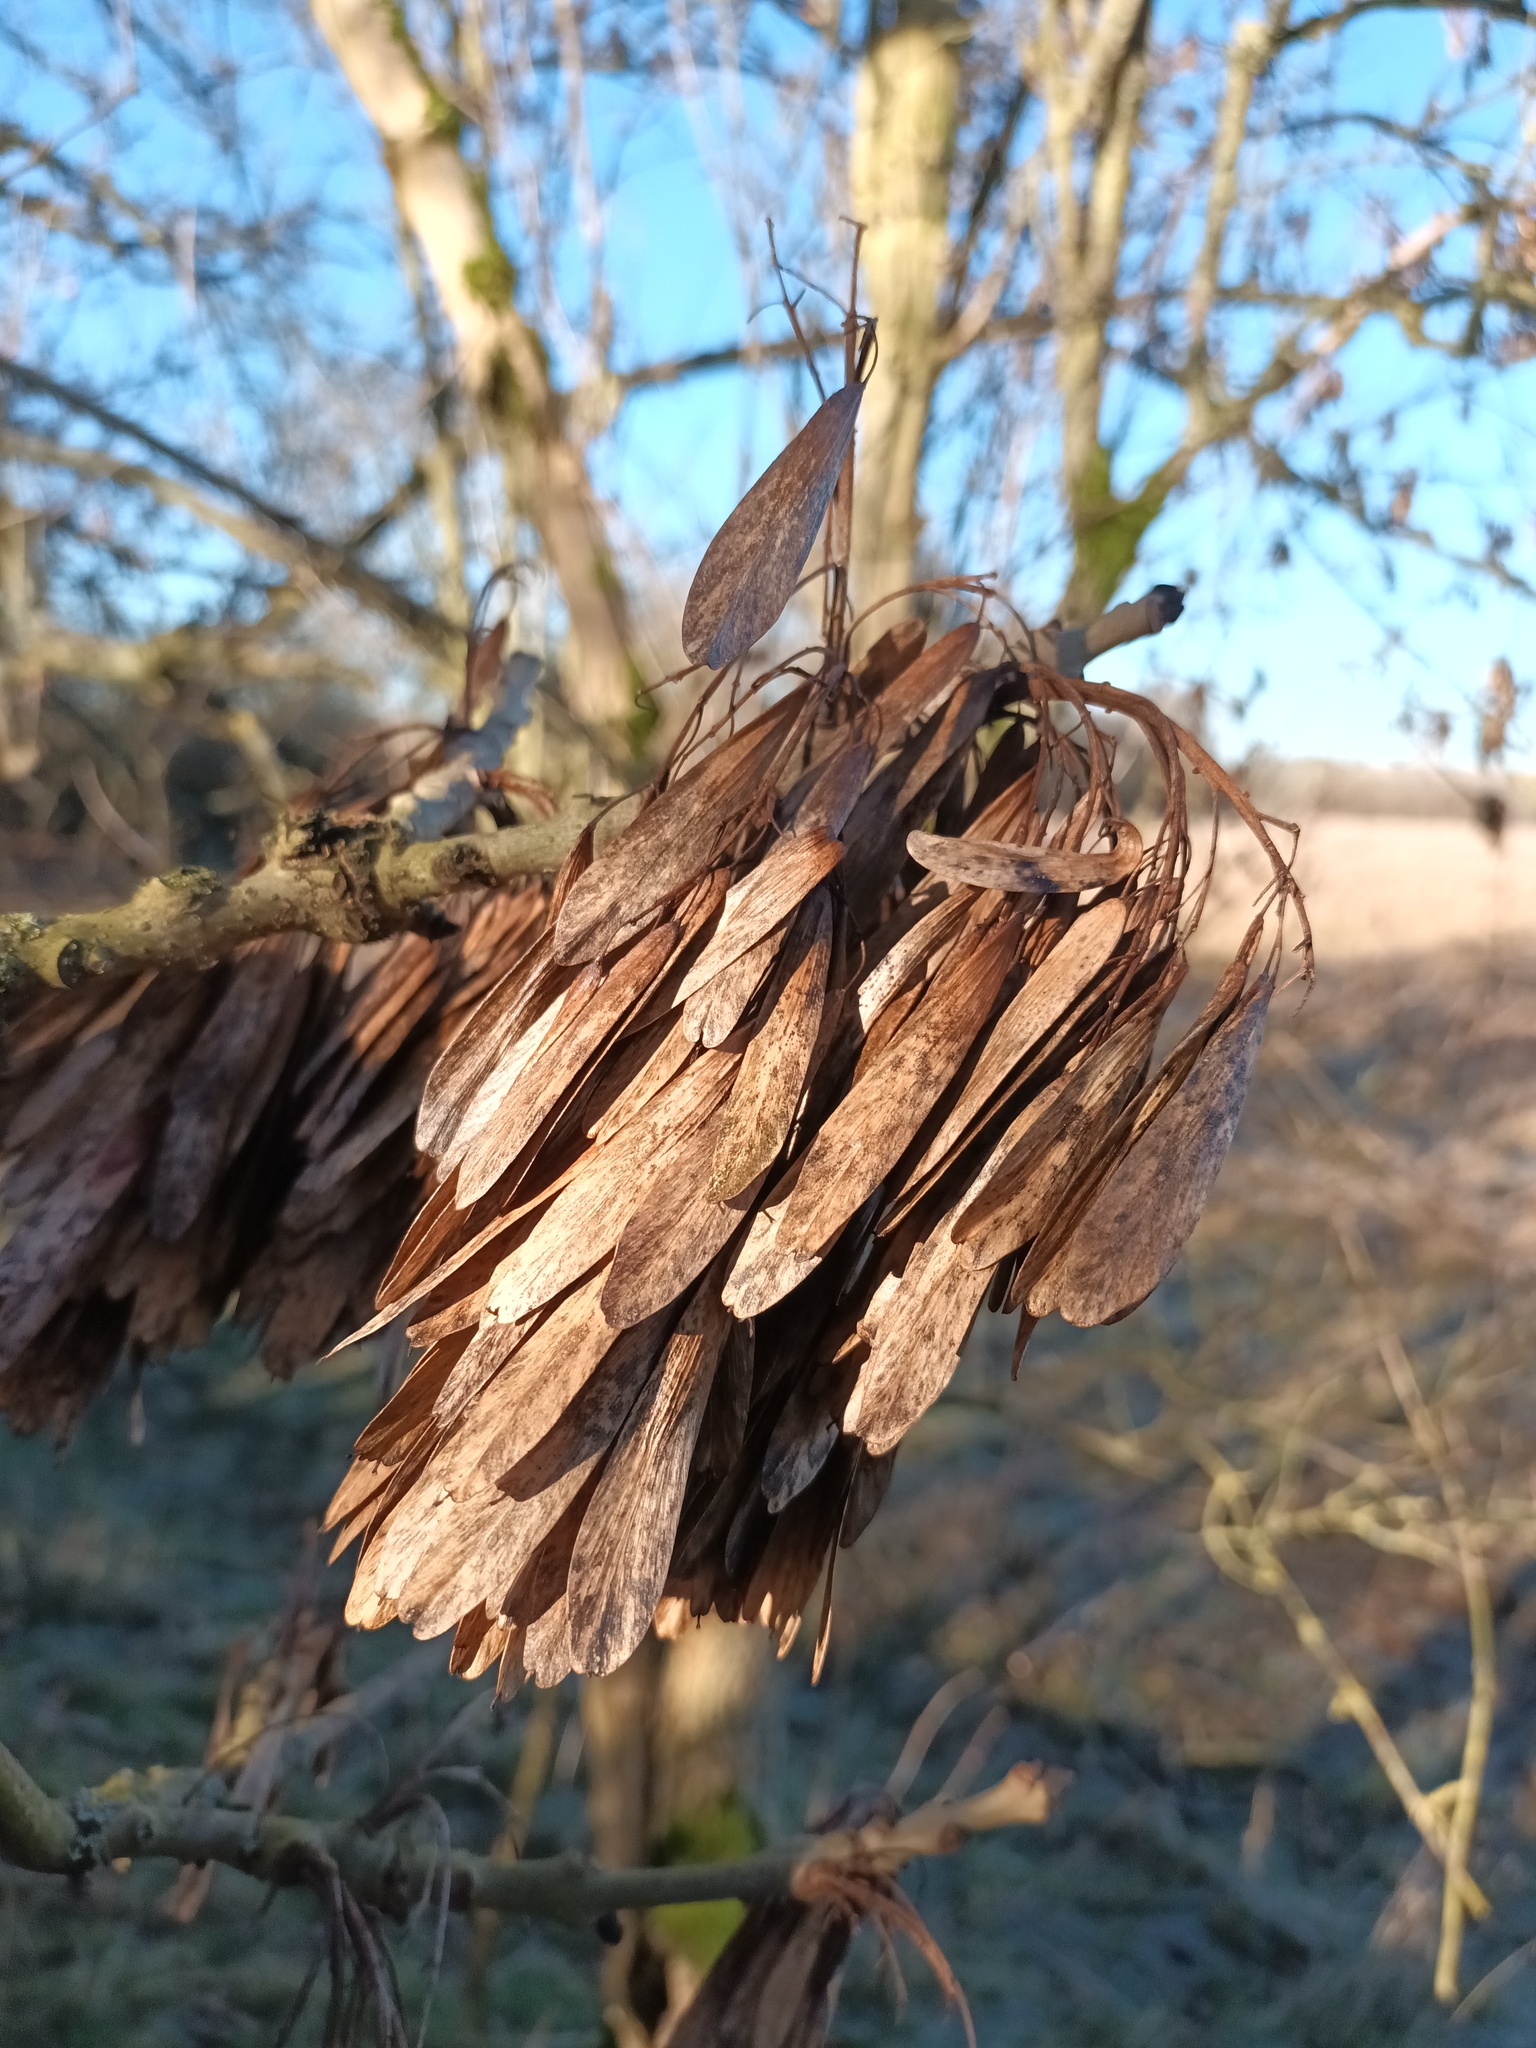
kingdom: Plantae
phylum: Tracheophyta
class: Magnoliopsida
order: Lamiales
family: Oleaceae
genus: Fraxinus
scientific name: Fraxinus excelsior
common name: European ash
